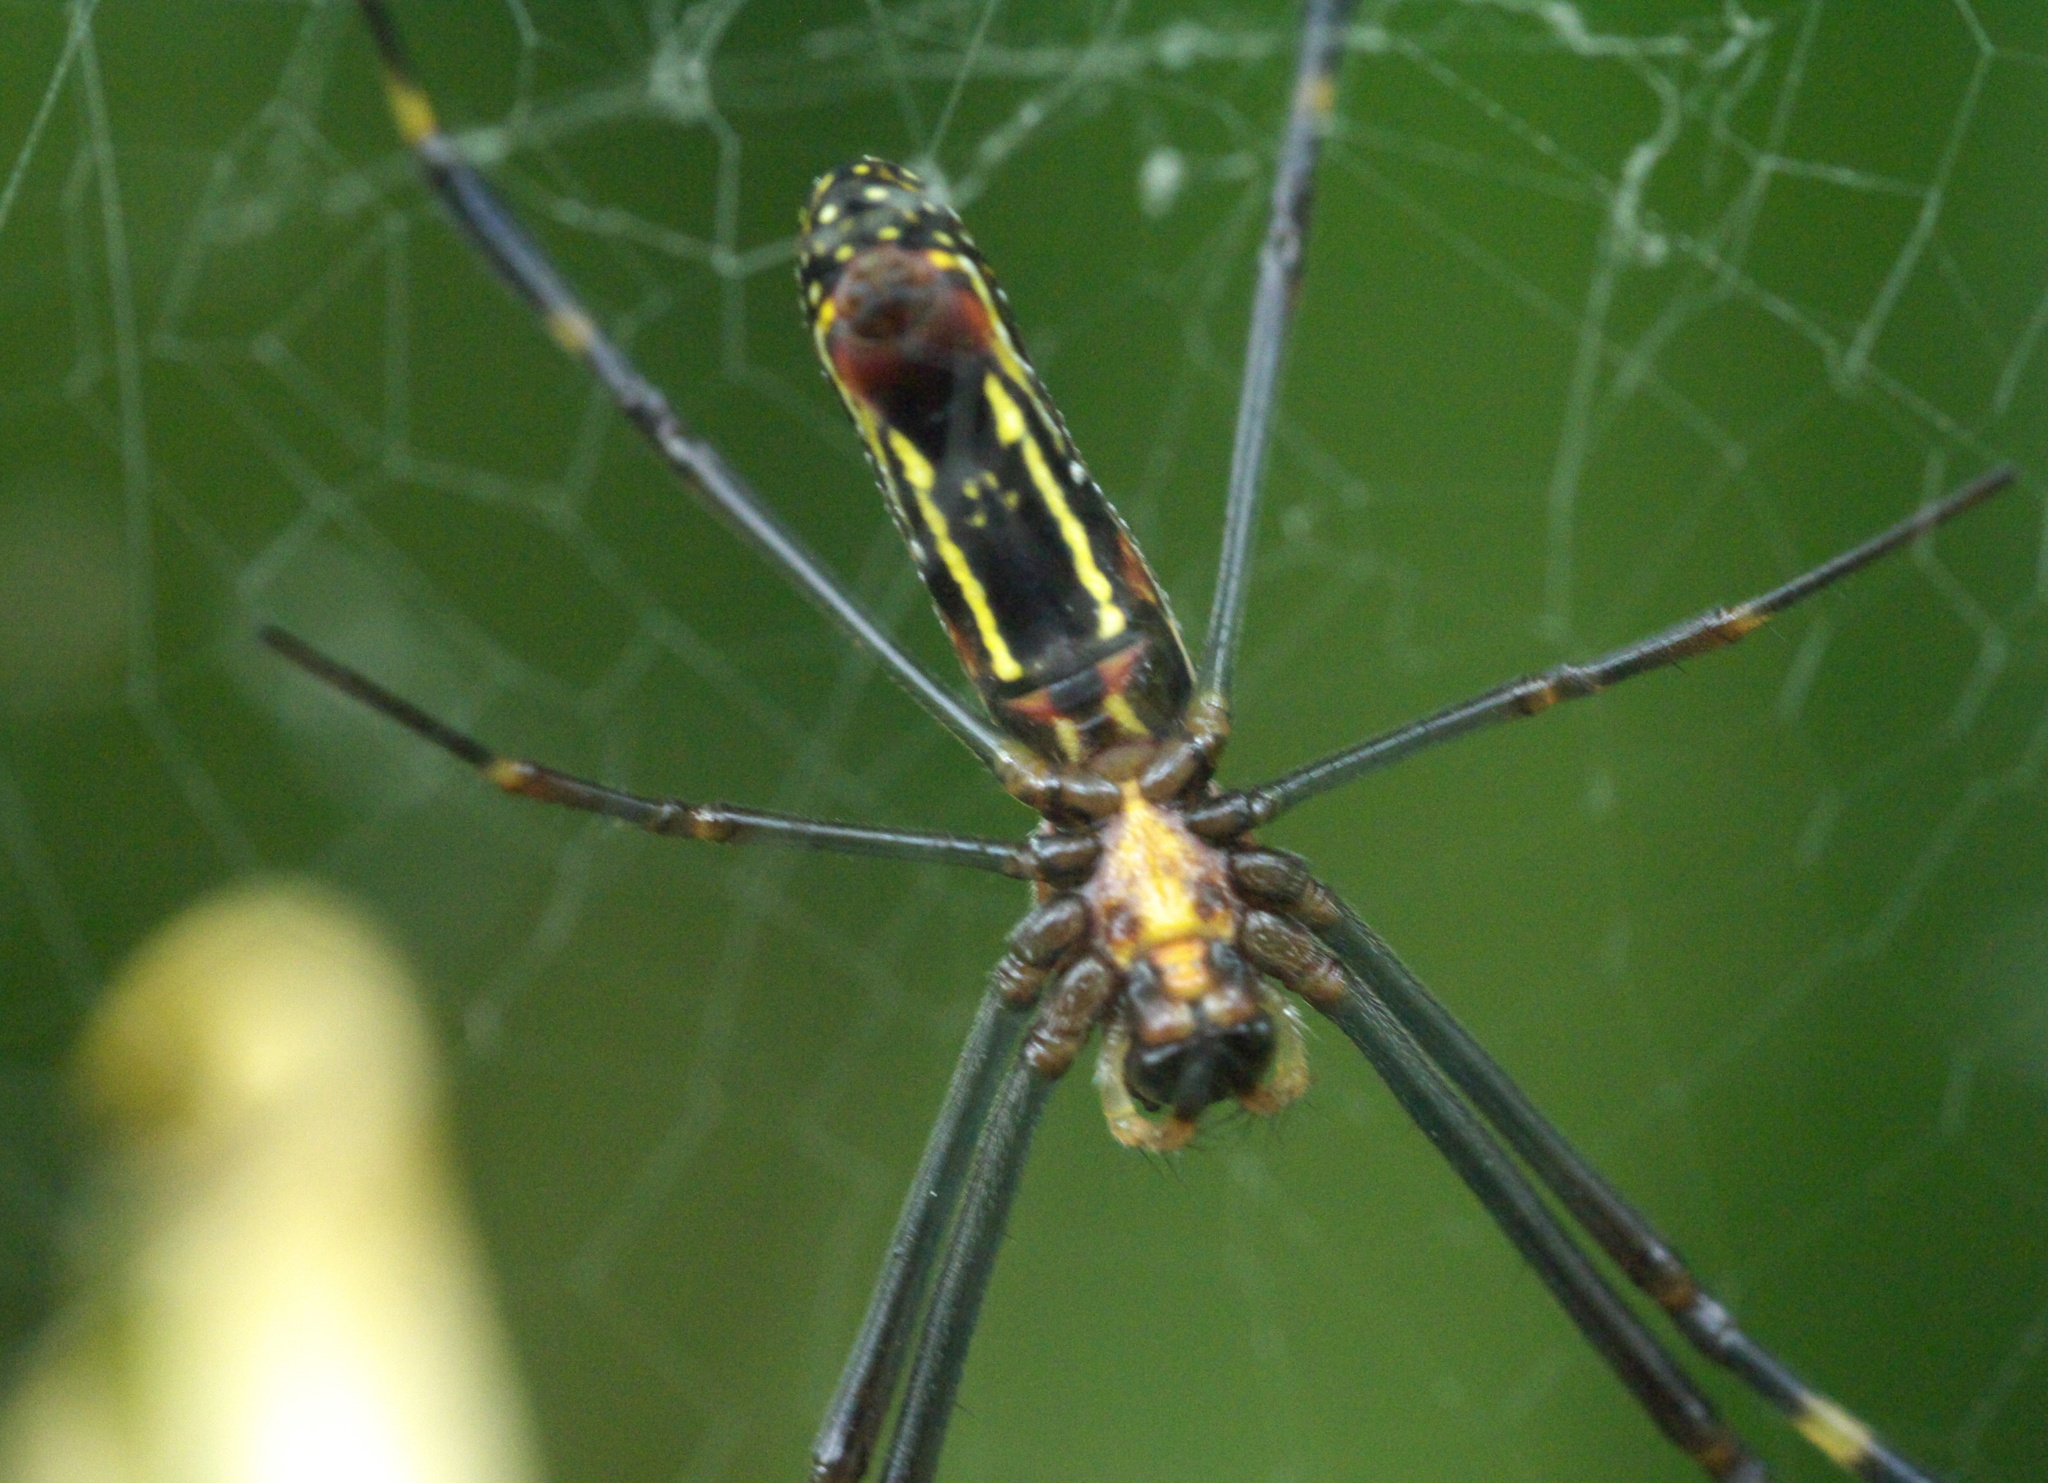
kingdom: Animalia
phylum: Arthropoda
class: Arachnida
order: Araneae
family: Araneidae
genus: Trichonephila
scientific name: Trichonephila clavipes
